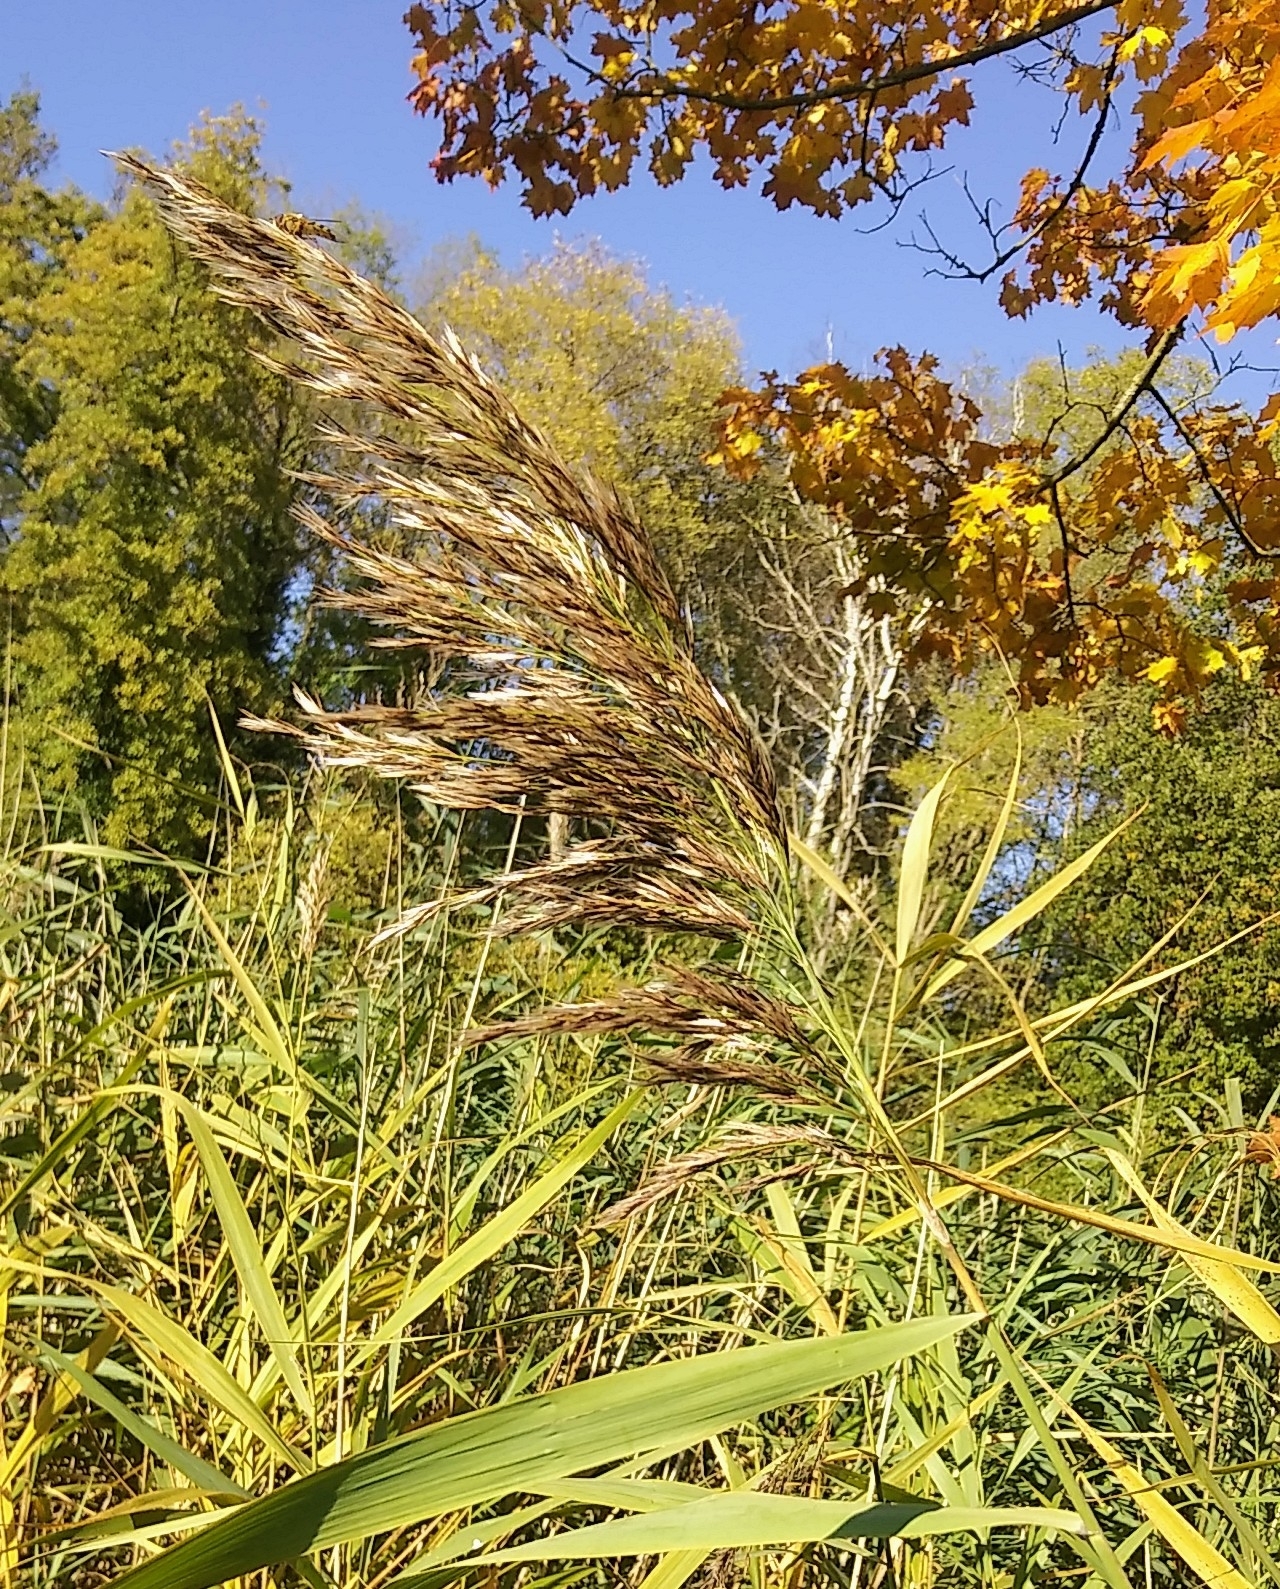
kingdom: Plantae
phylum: Tracheophyta
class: Liliopsida
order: Poales
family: Poaceae
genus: Phragmites
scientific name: Phragmites australis
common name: Common reed
